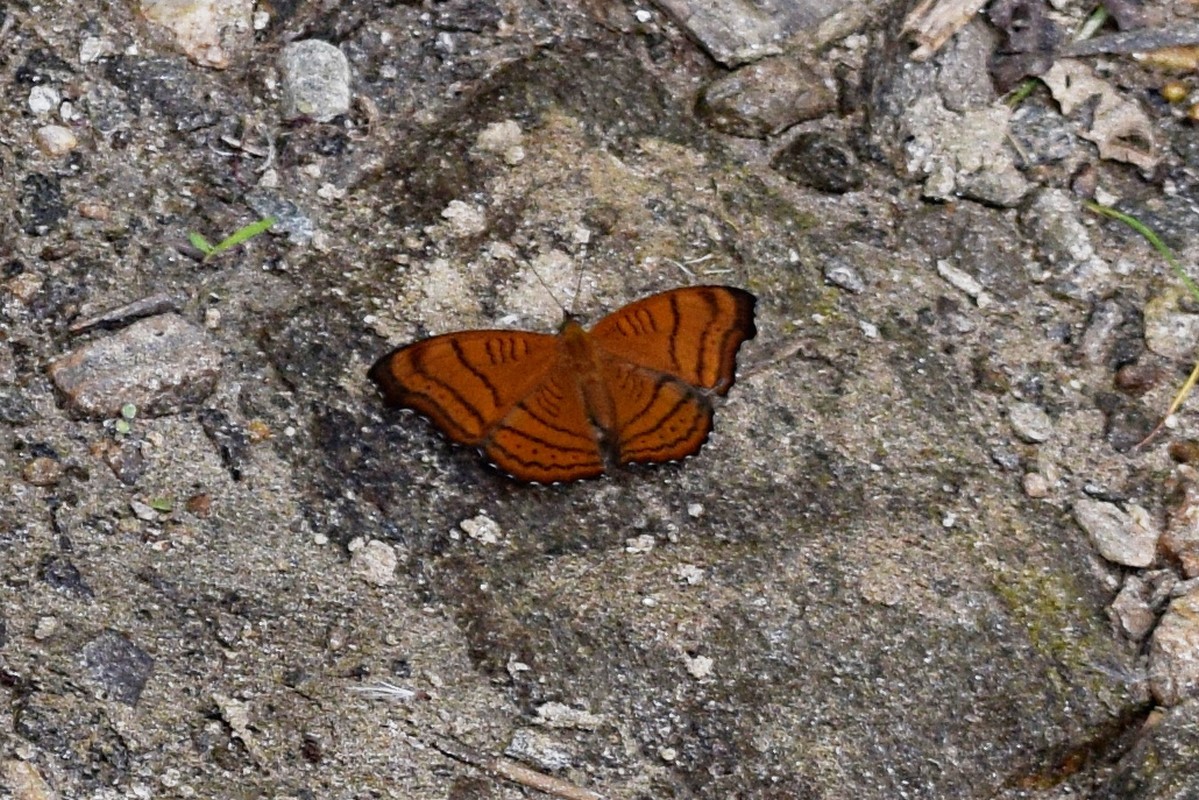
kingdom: Animalia
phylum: Arthropoda
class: Insecta
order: Lepidoptera
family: Nymphalidae
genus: Pseudergolis
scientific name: Pseudergolis wedah
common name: Tabby
